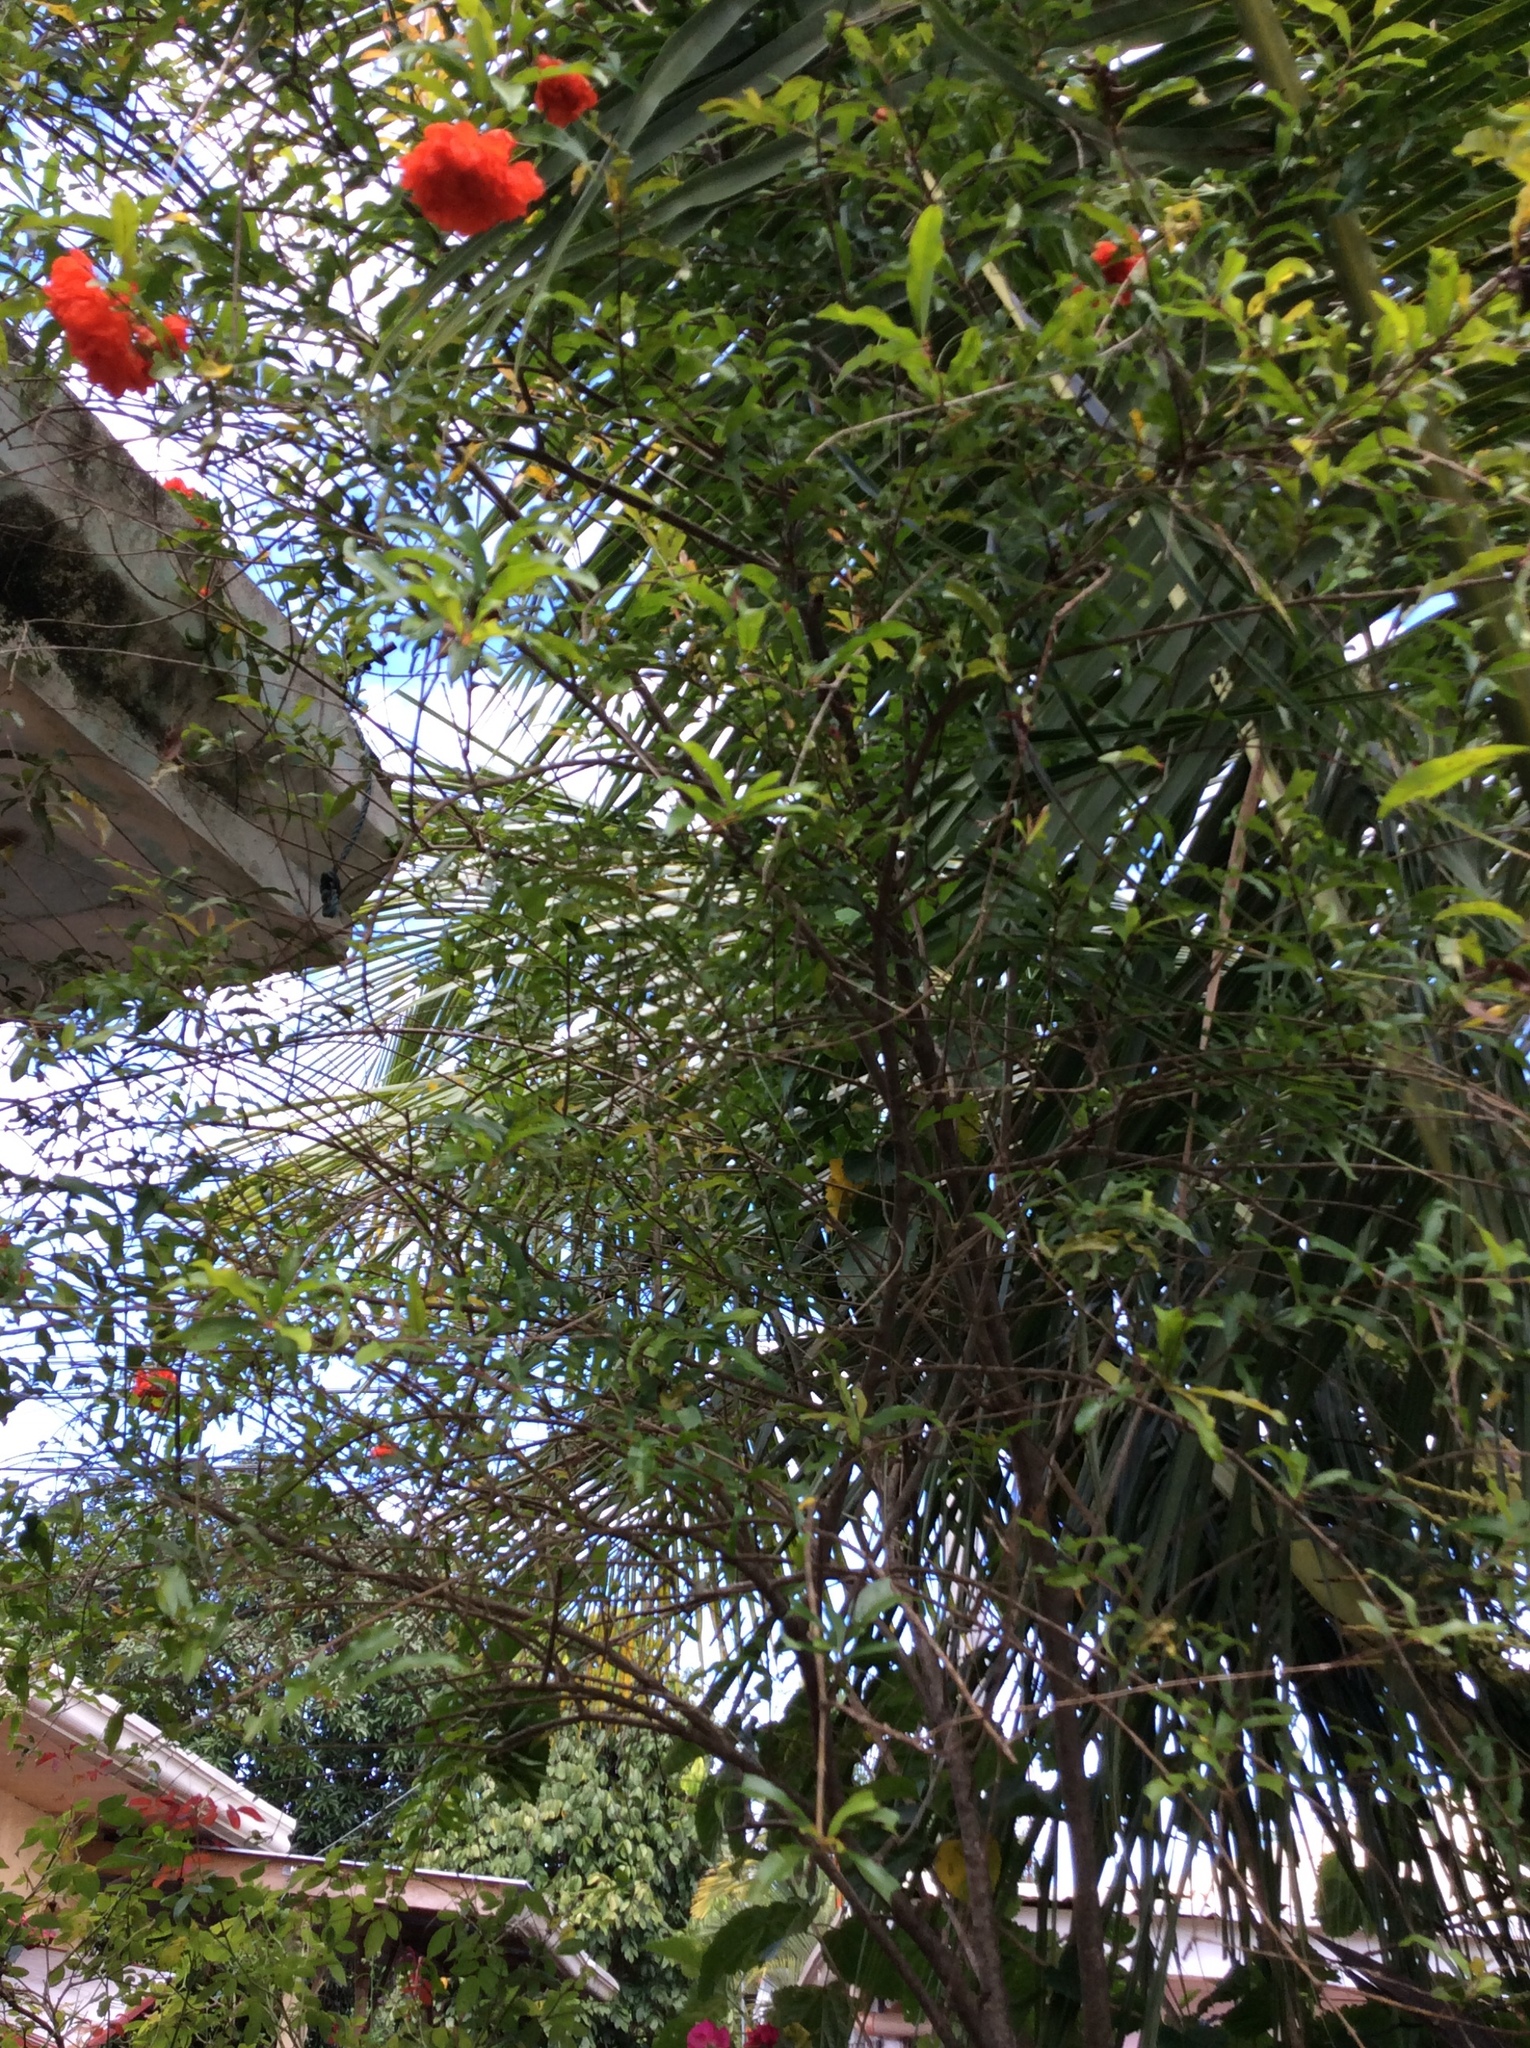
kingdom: Plantae
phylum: Tracheophyta
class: Magnoliopsida
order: Myrtales
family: Lythraceae
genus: Punica
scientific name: Punica granatum
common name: Pomegranate
